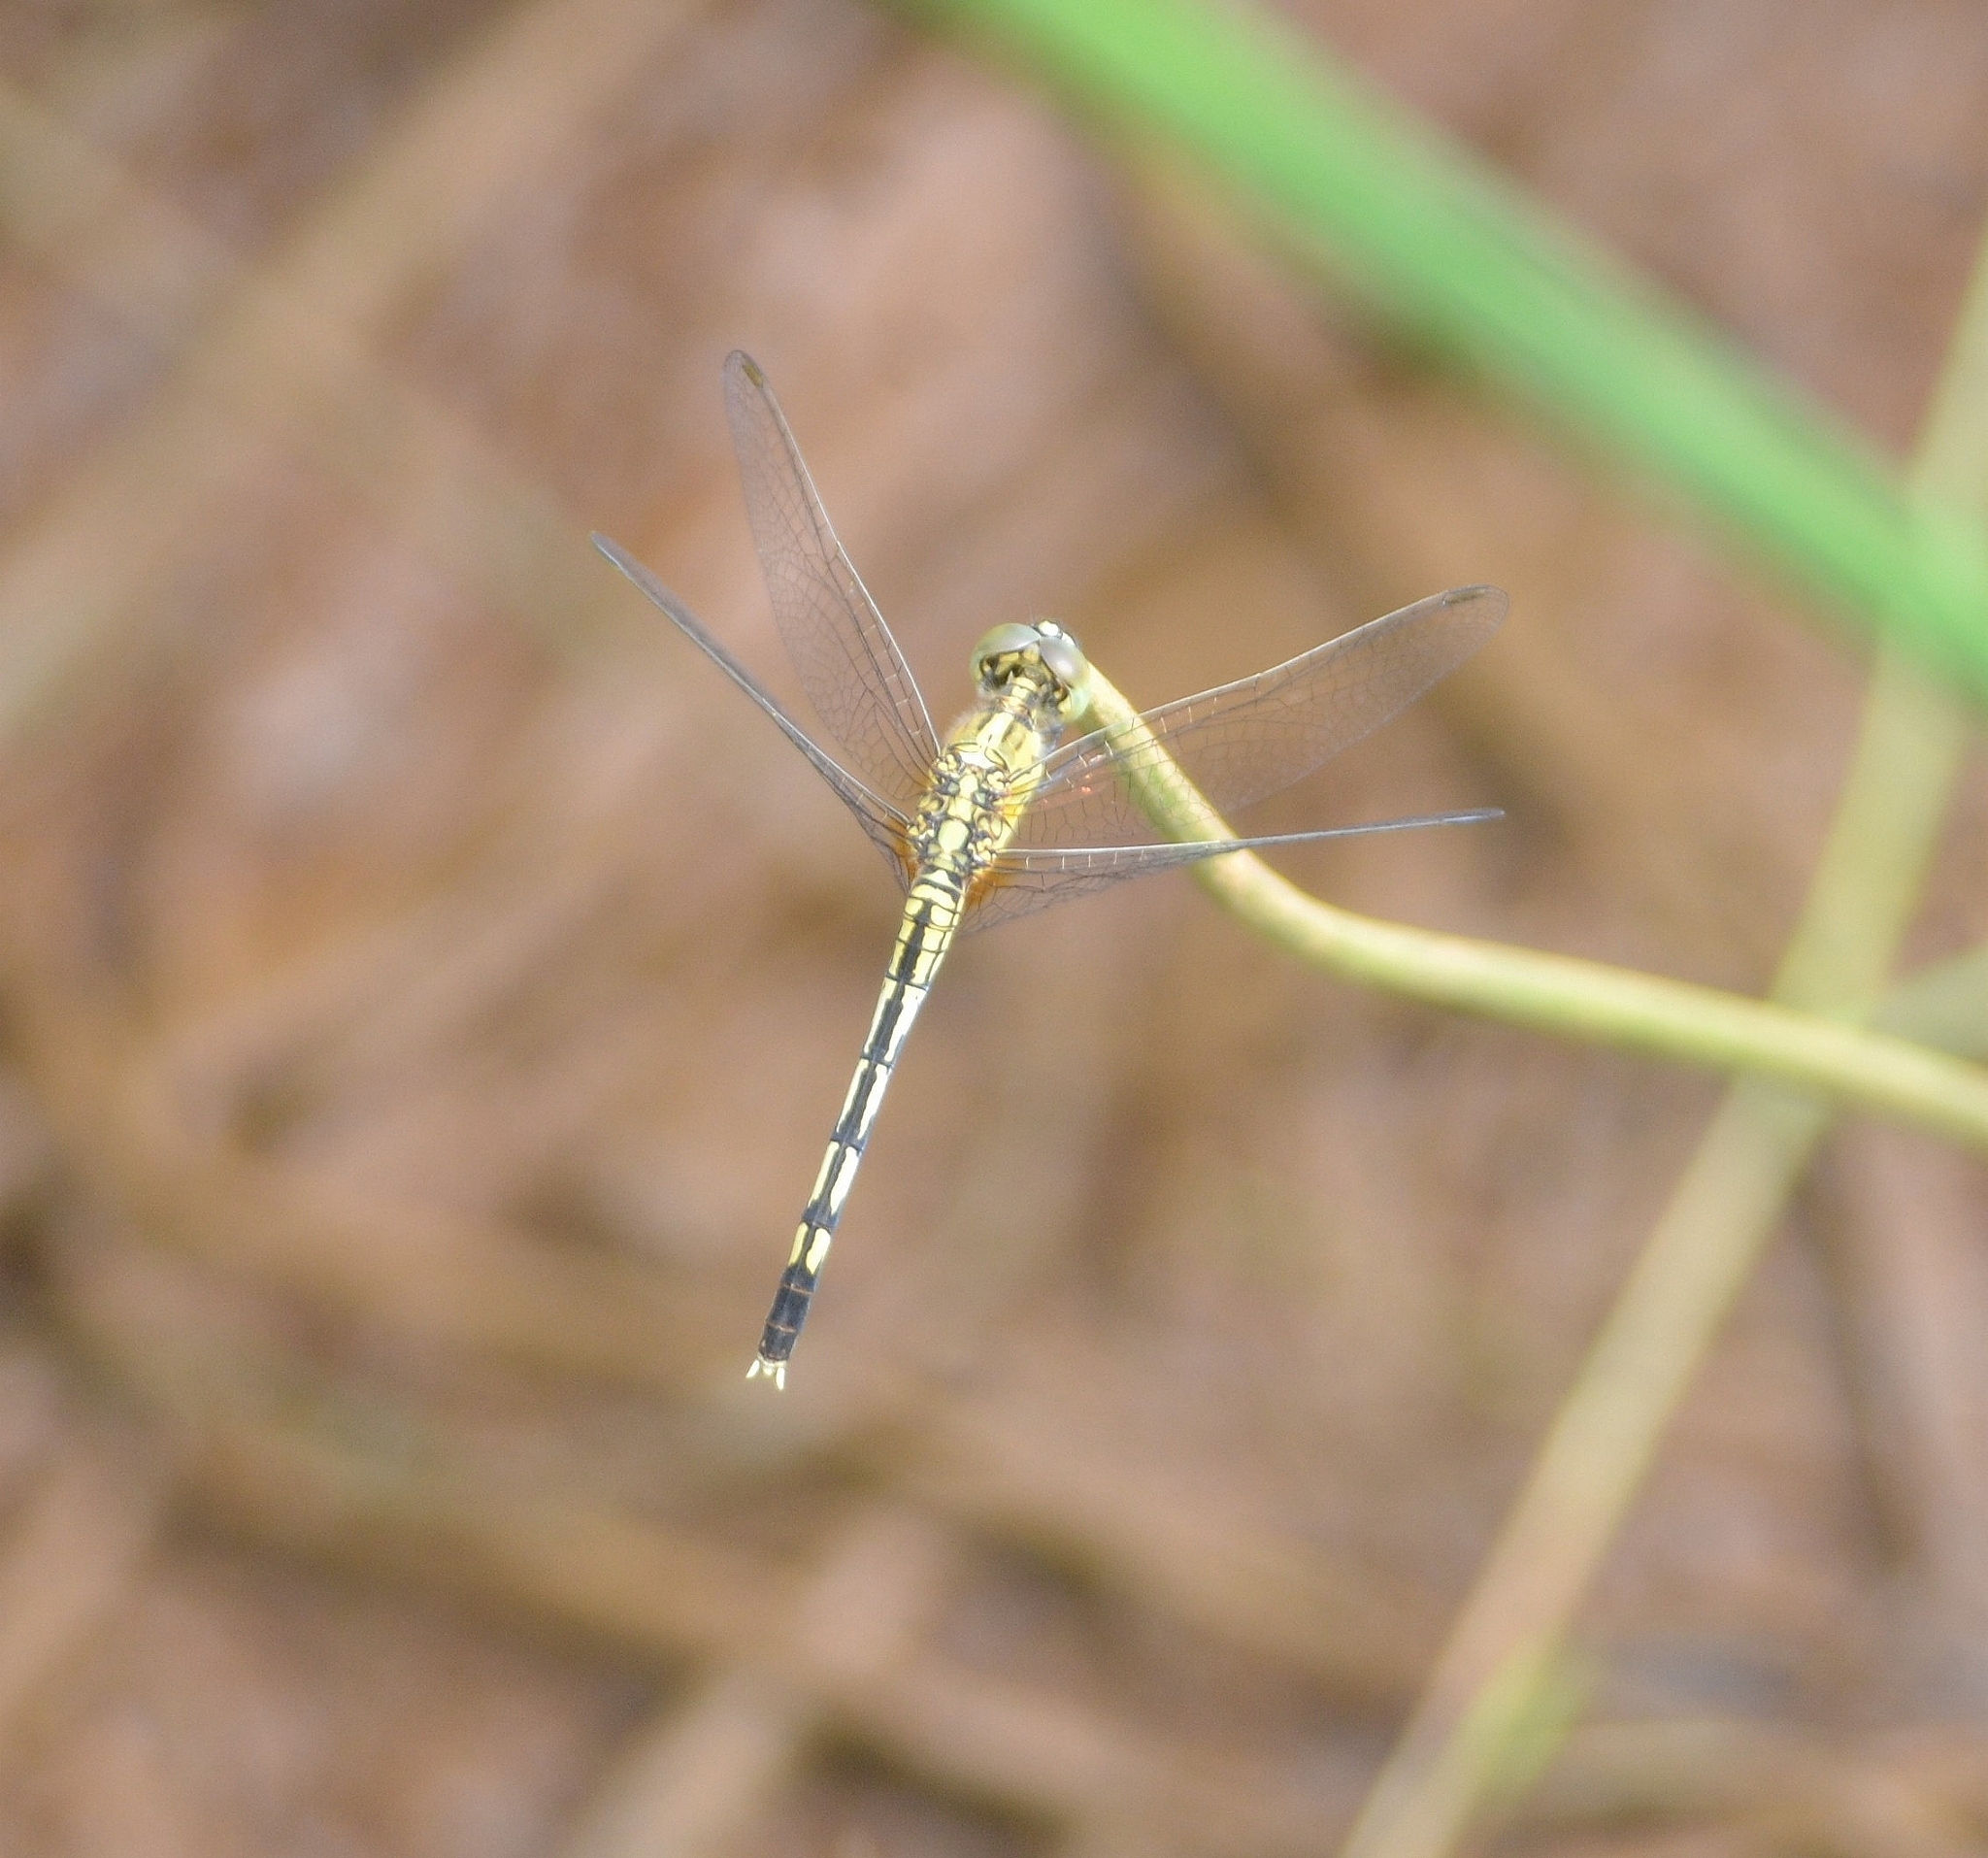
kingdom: Animalia
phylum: Arthropoda
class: Insecta
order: Odonata
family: Libellulidae
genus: Diplacodes
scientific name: Diplacodes trivialis
